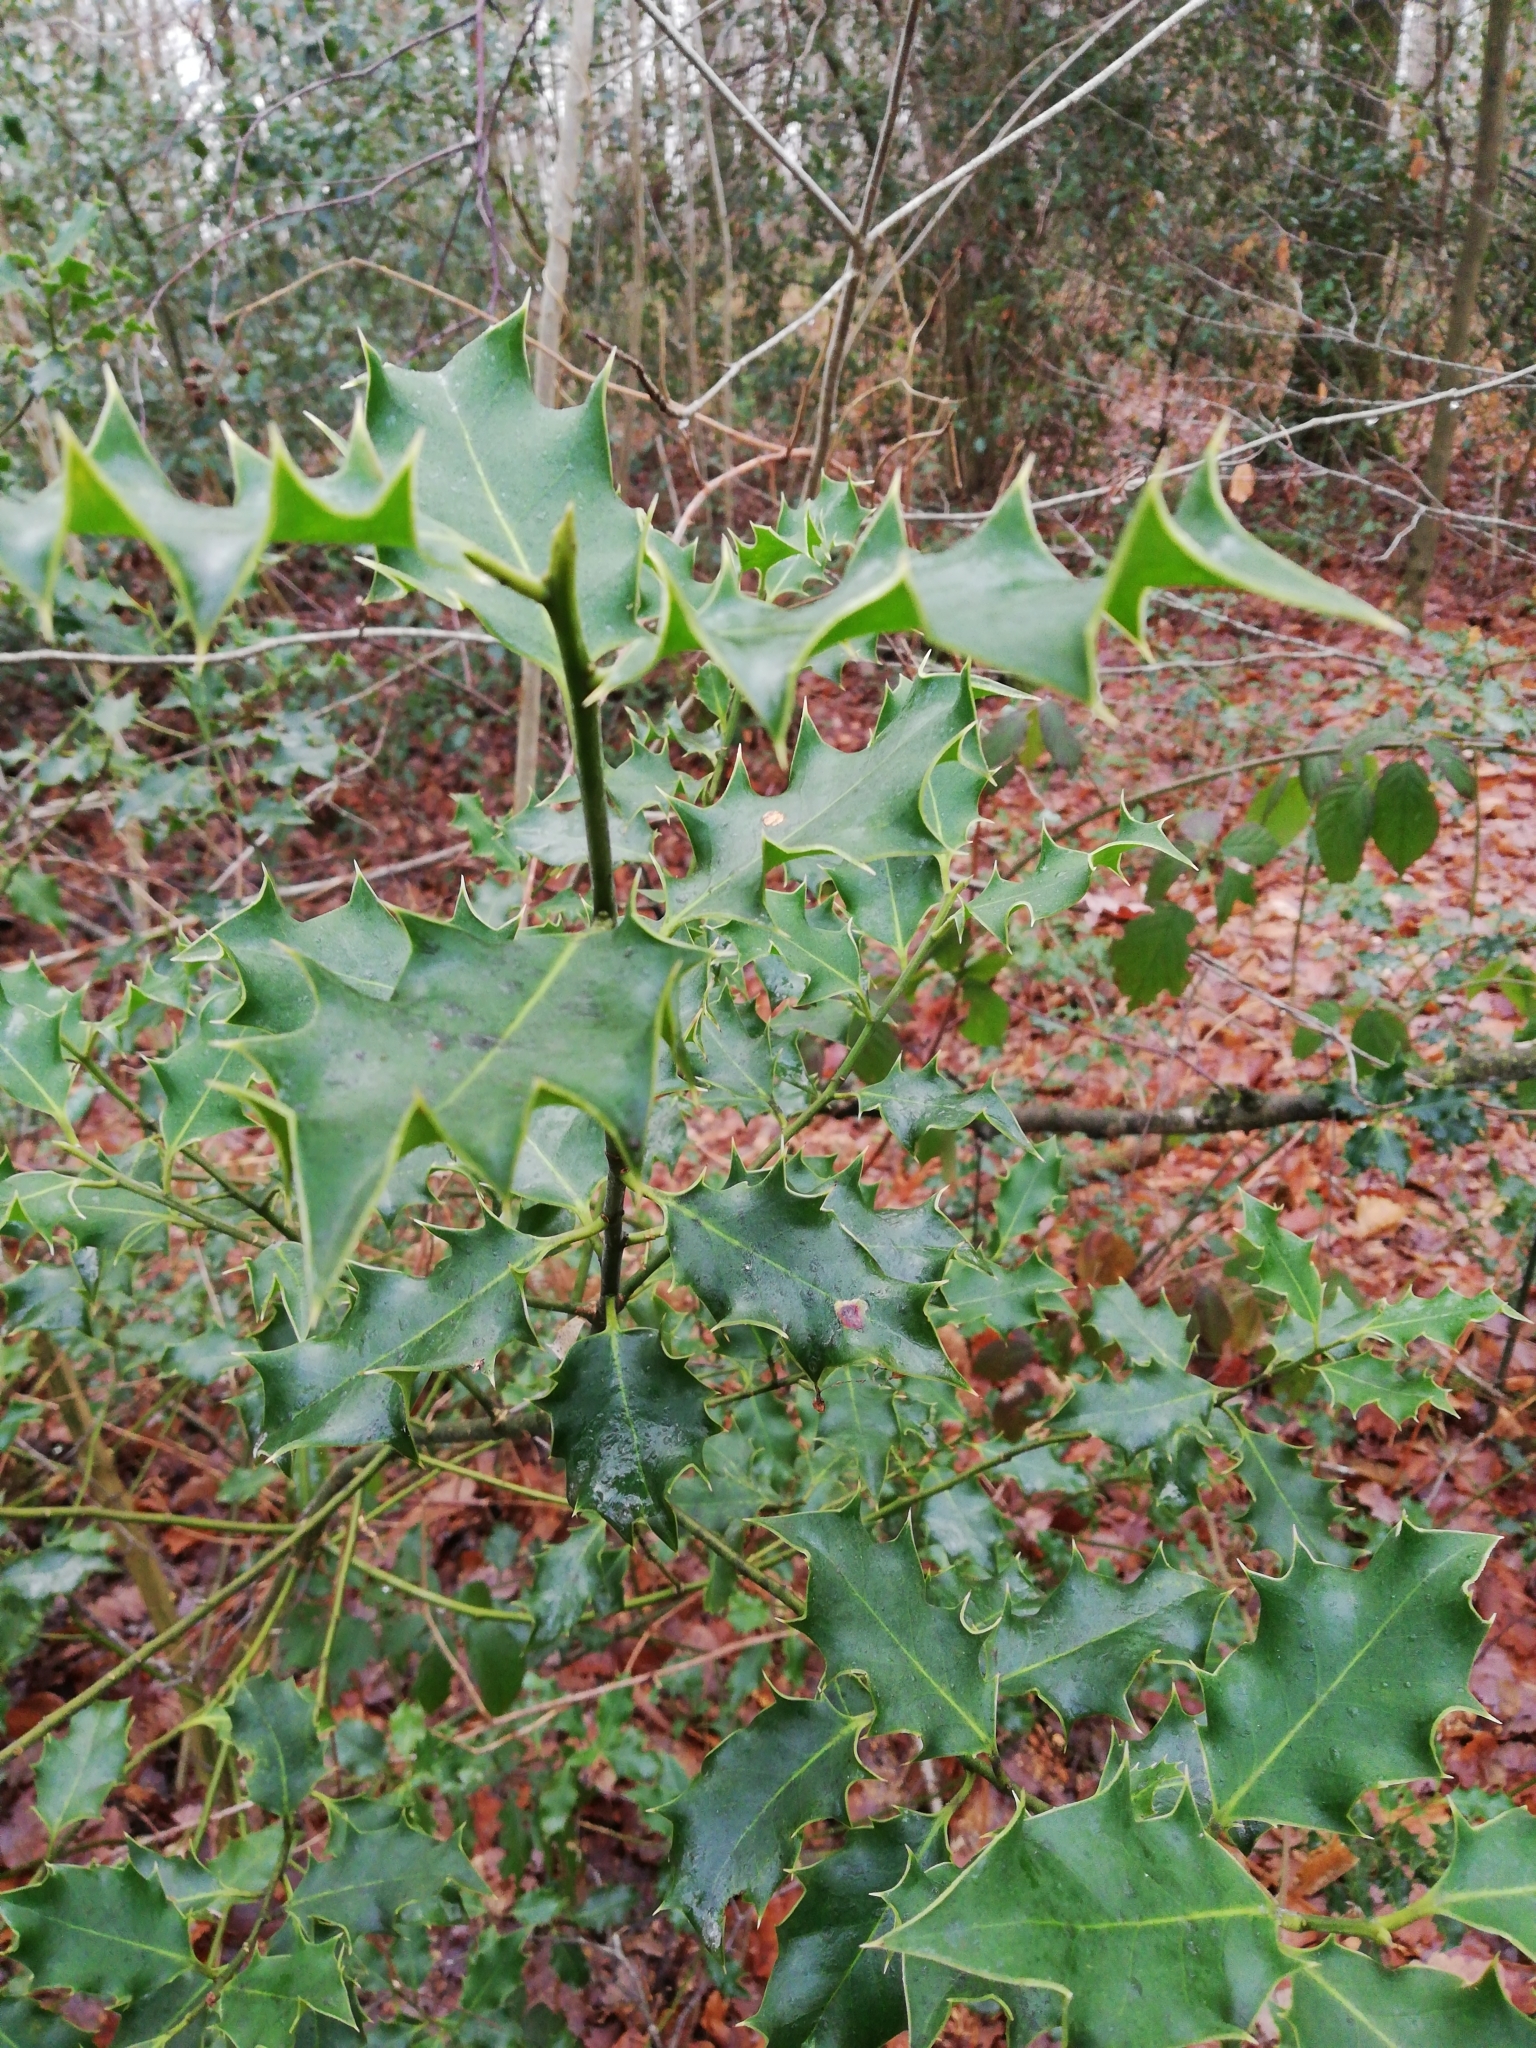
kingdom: Plantae
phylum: Tracheophyta
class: Magnoliopsida
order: Aquifoliales
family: Aquifoliaceae
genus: Ilex
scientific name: Ilex aquifolium
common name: English holly
